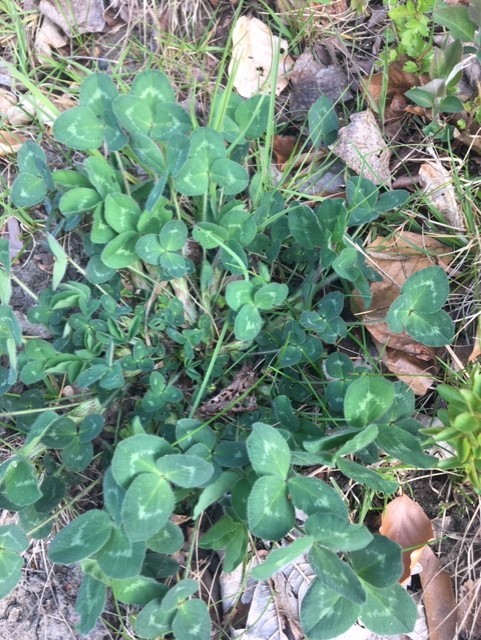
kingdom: Plantae
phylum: Tracheophyta
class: Magnoliopsida
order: Fabales
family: Fabaceae
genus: Trifolium
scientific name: Trifolium pratense
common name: Red clover
